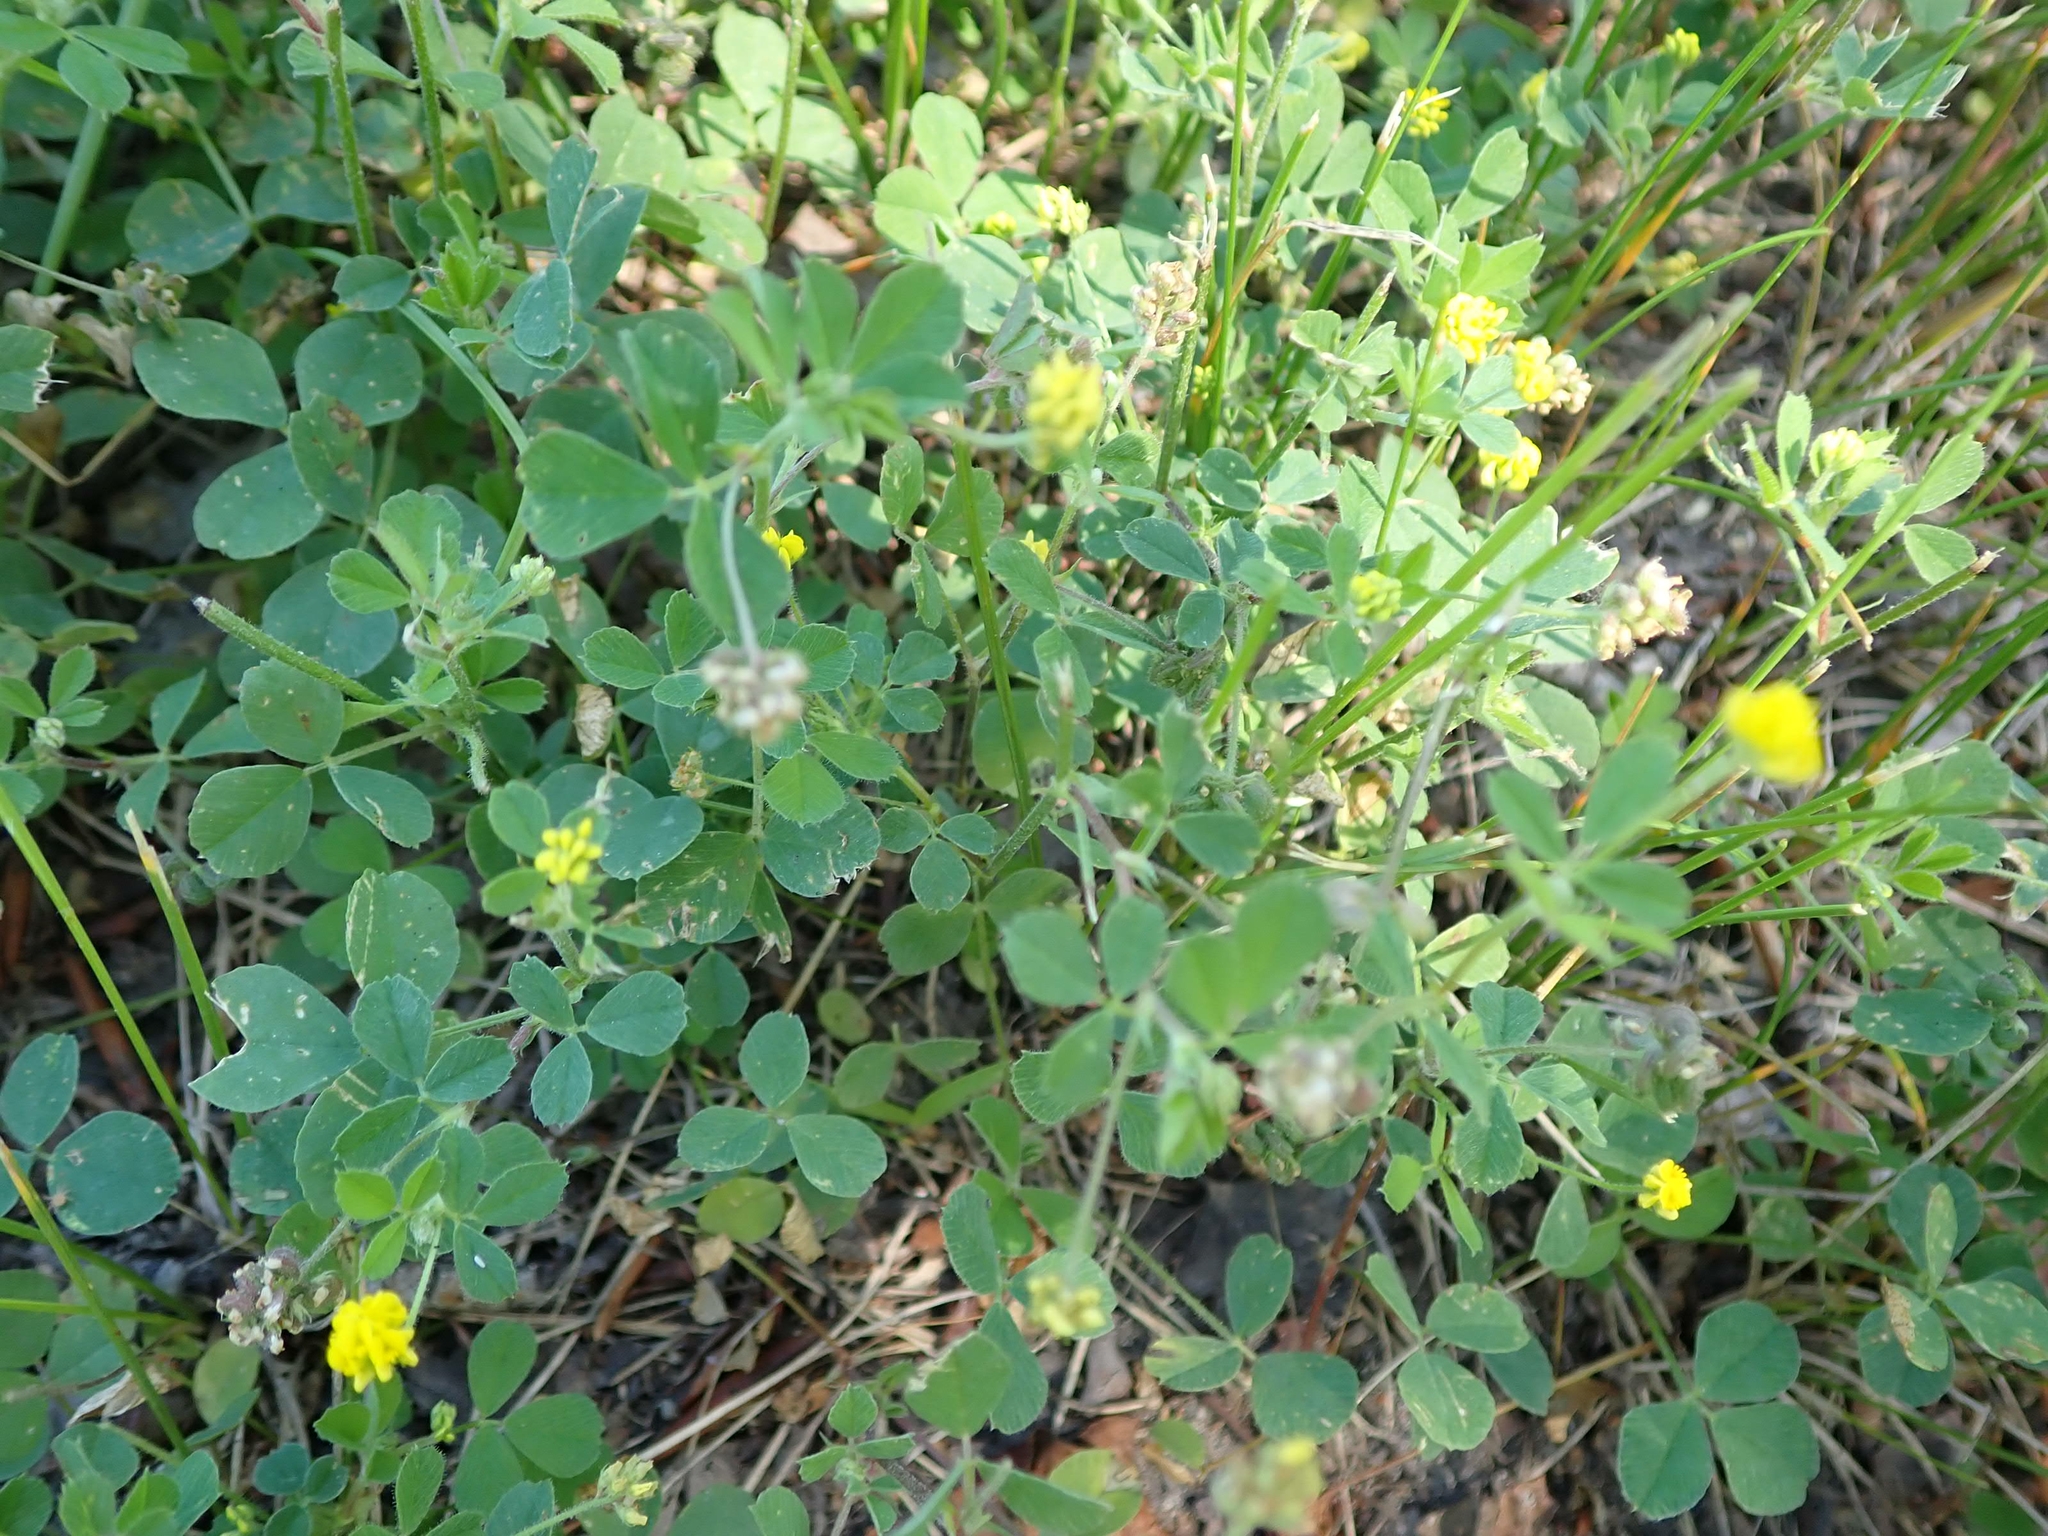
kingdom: Plantae
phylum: Tracheophyta
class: Magnoliopsida
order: Fabales
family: Fabaceae
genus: Medicago
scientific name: Medicago lupulina
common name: Black medick
